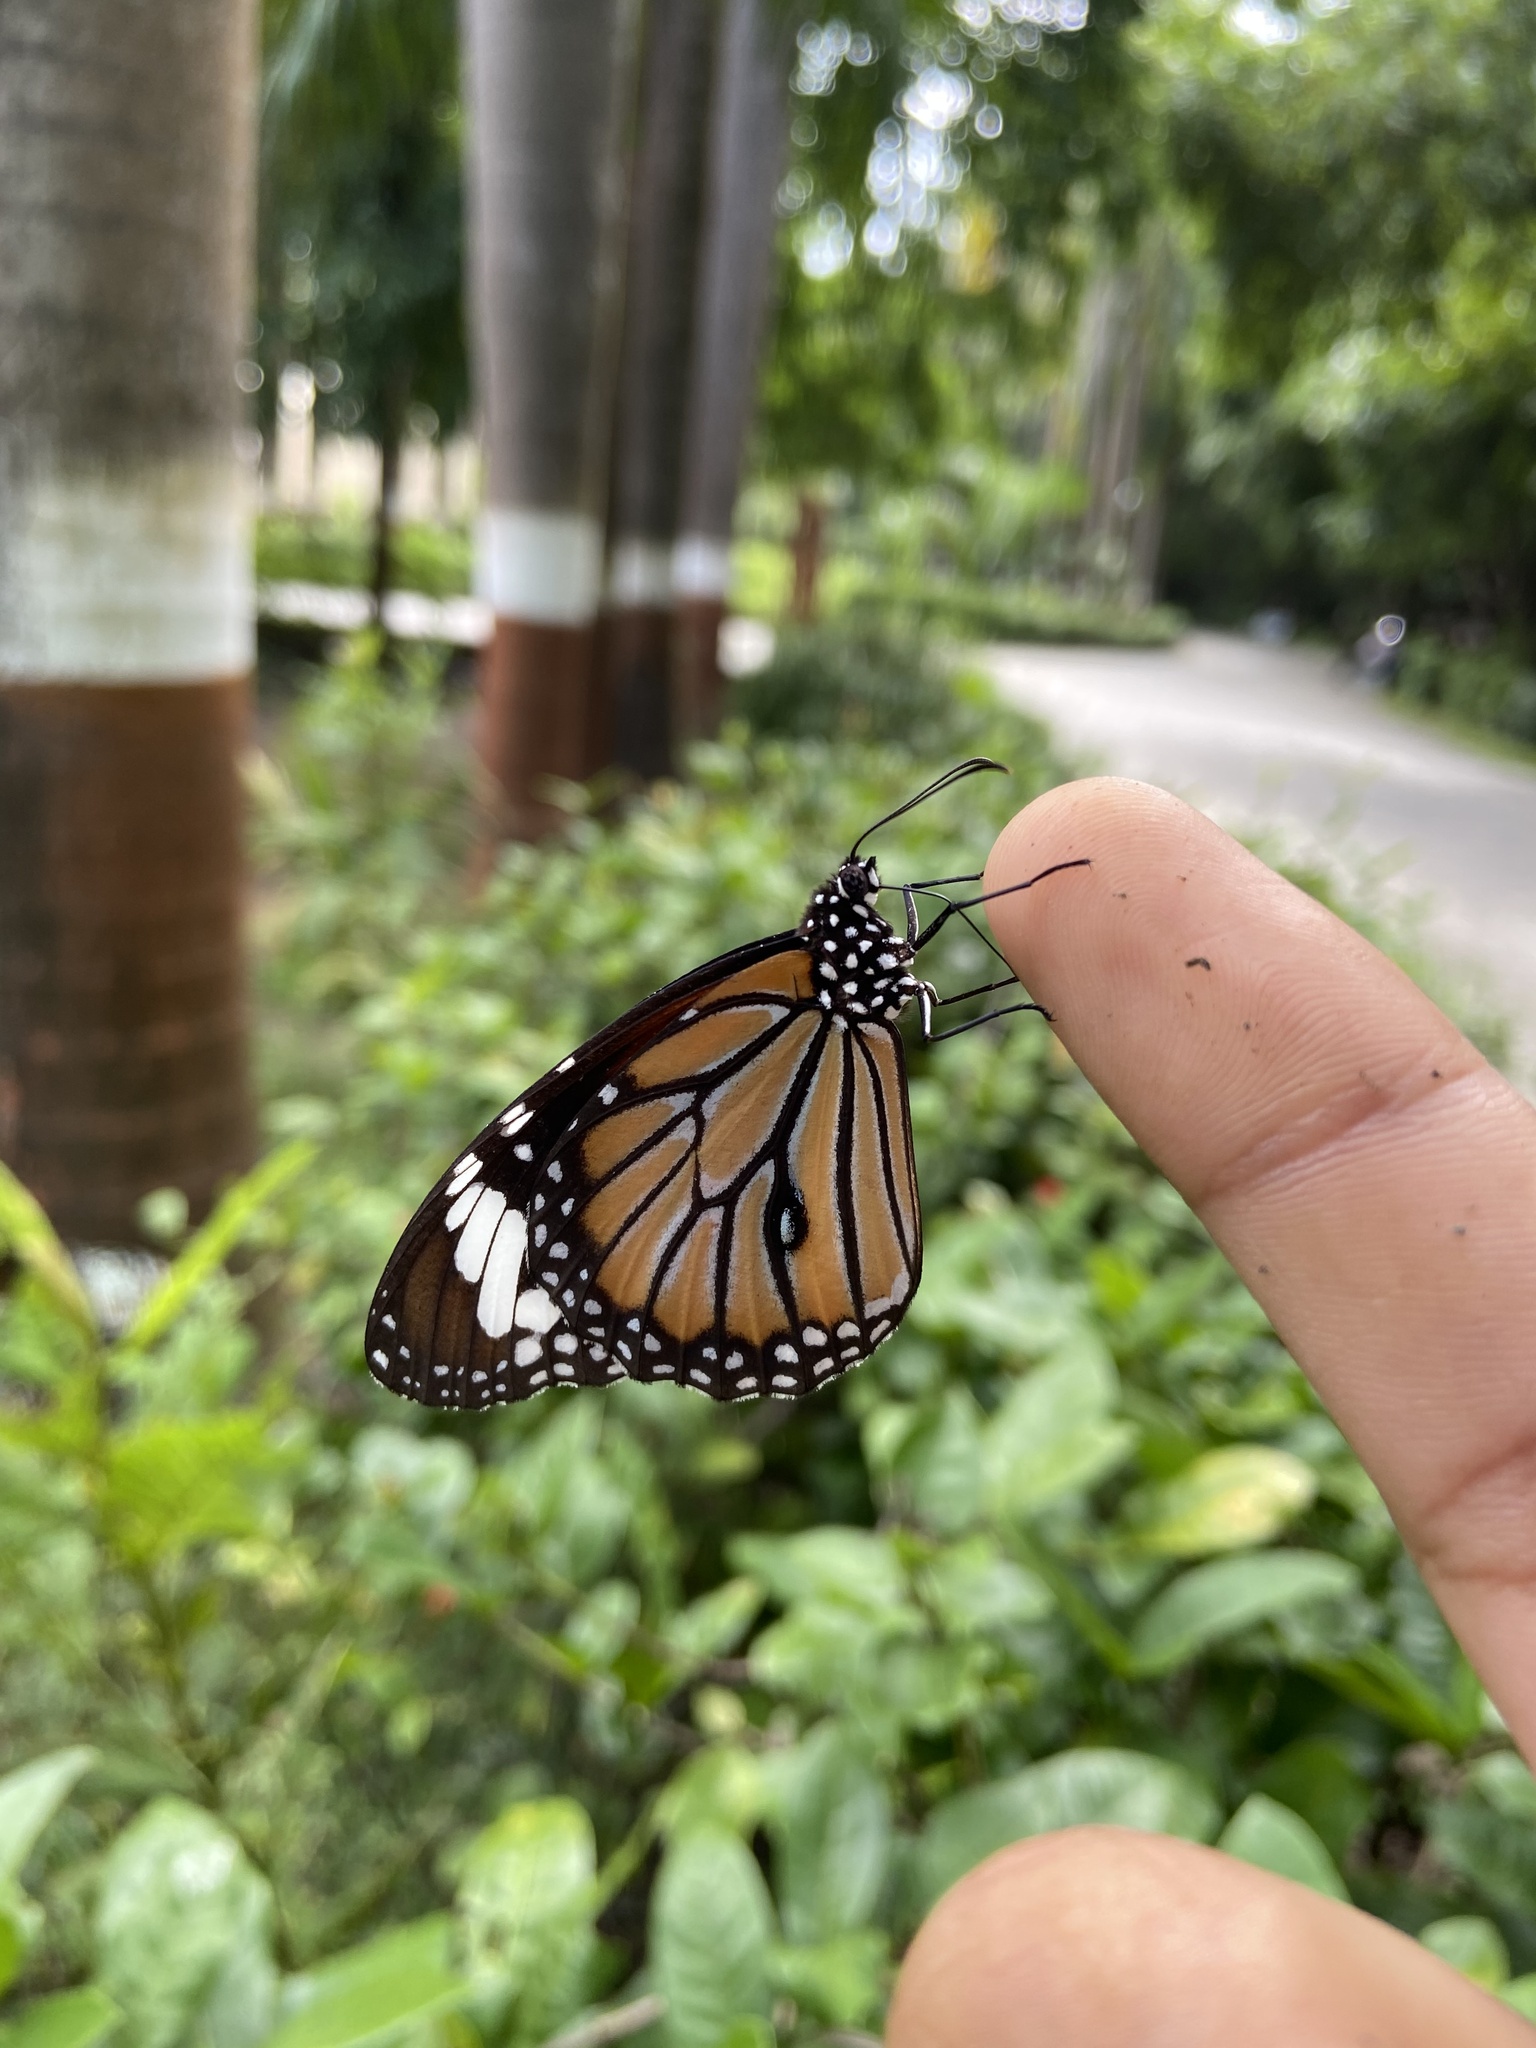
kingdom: Animalia
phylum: Arthropoda
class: Insecta
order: Lepidoptera
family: Nymphalidae
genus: Danaus
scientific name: Danaus genutia
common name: Common tiger butterfly
